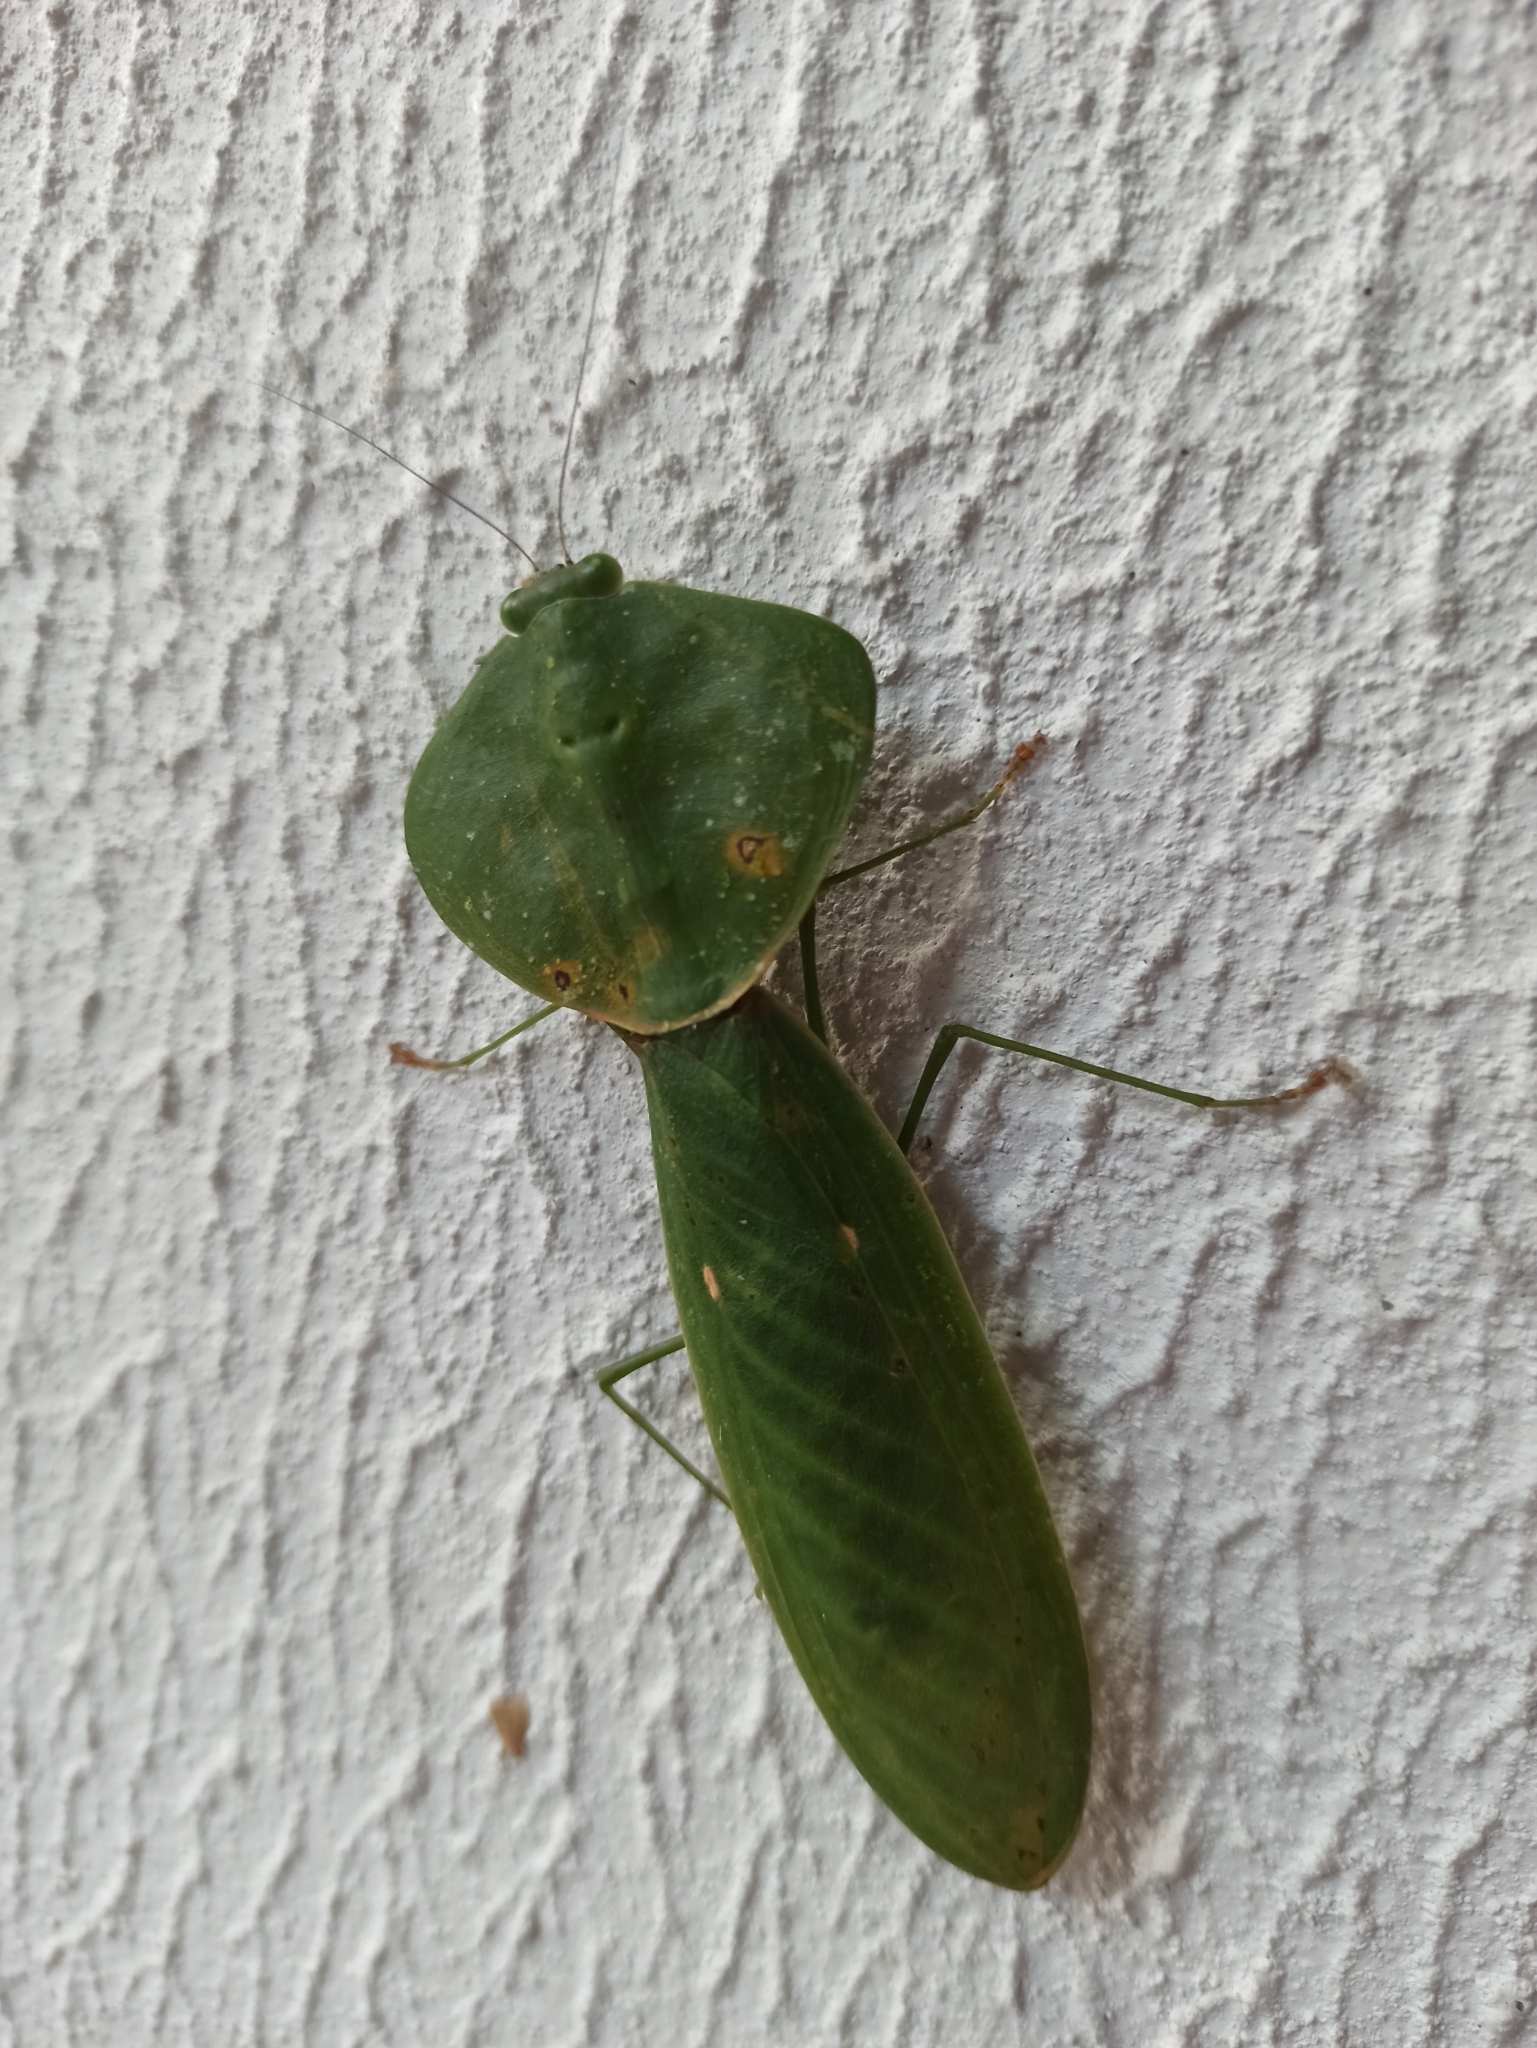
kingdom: Animalia
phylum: Arthropoda
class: Insecta
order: Mantodea
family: Mantidae
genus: Choeradodis
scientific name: Choeradodis rhombicollis
